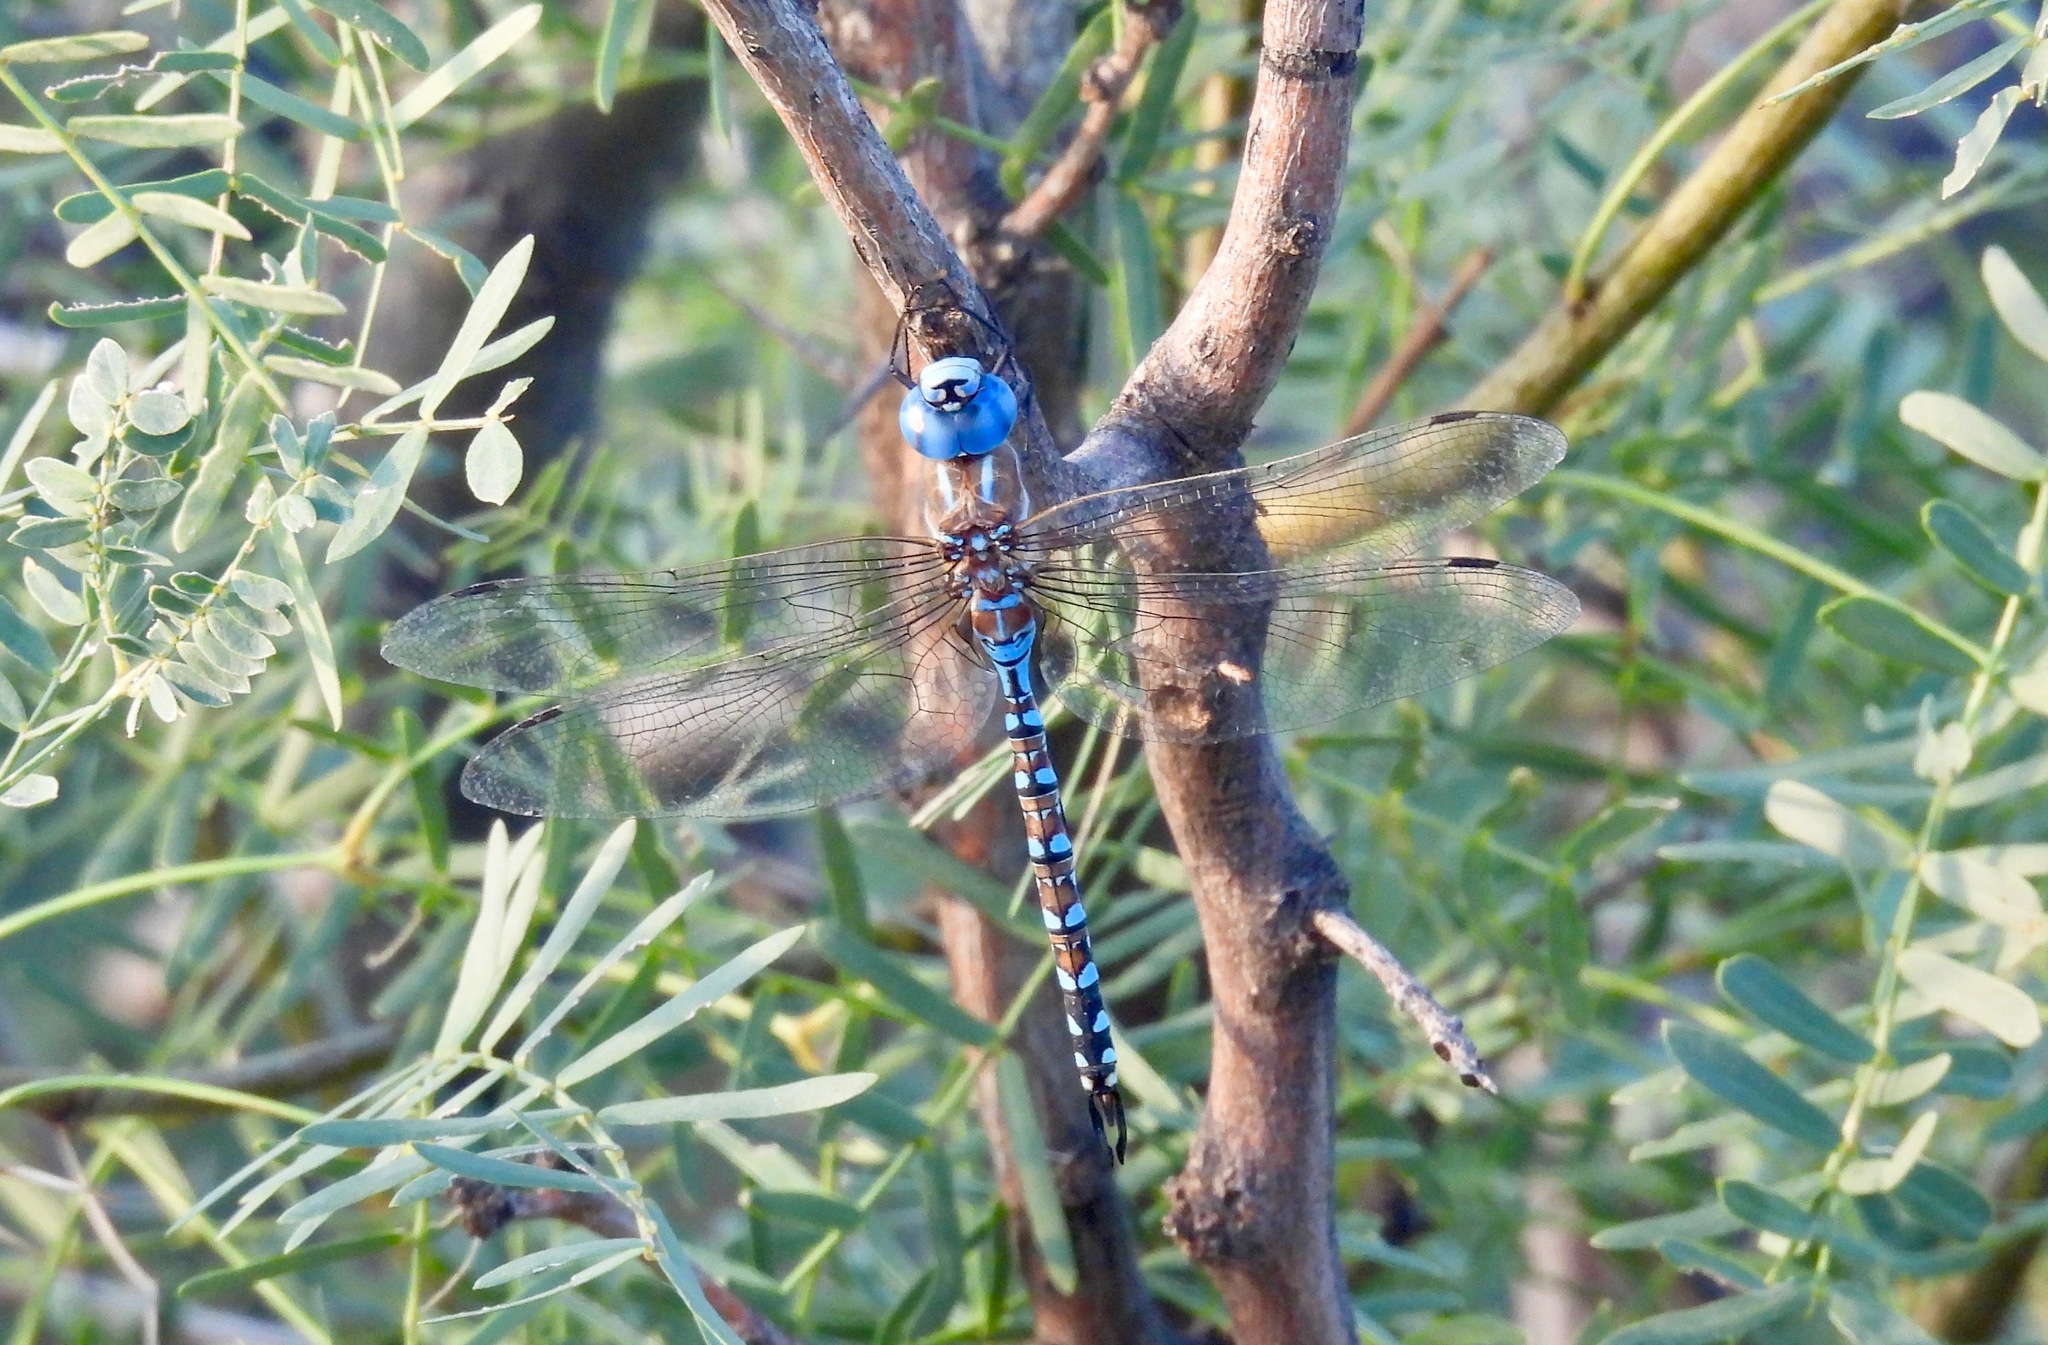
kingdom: Animalia
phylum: Arthropoda
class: Insecta
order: Odonata
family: Aeshnidae
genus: Rhionaeschna
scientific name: Rhionaeschna multicolor
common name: Blue-eyed darner
